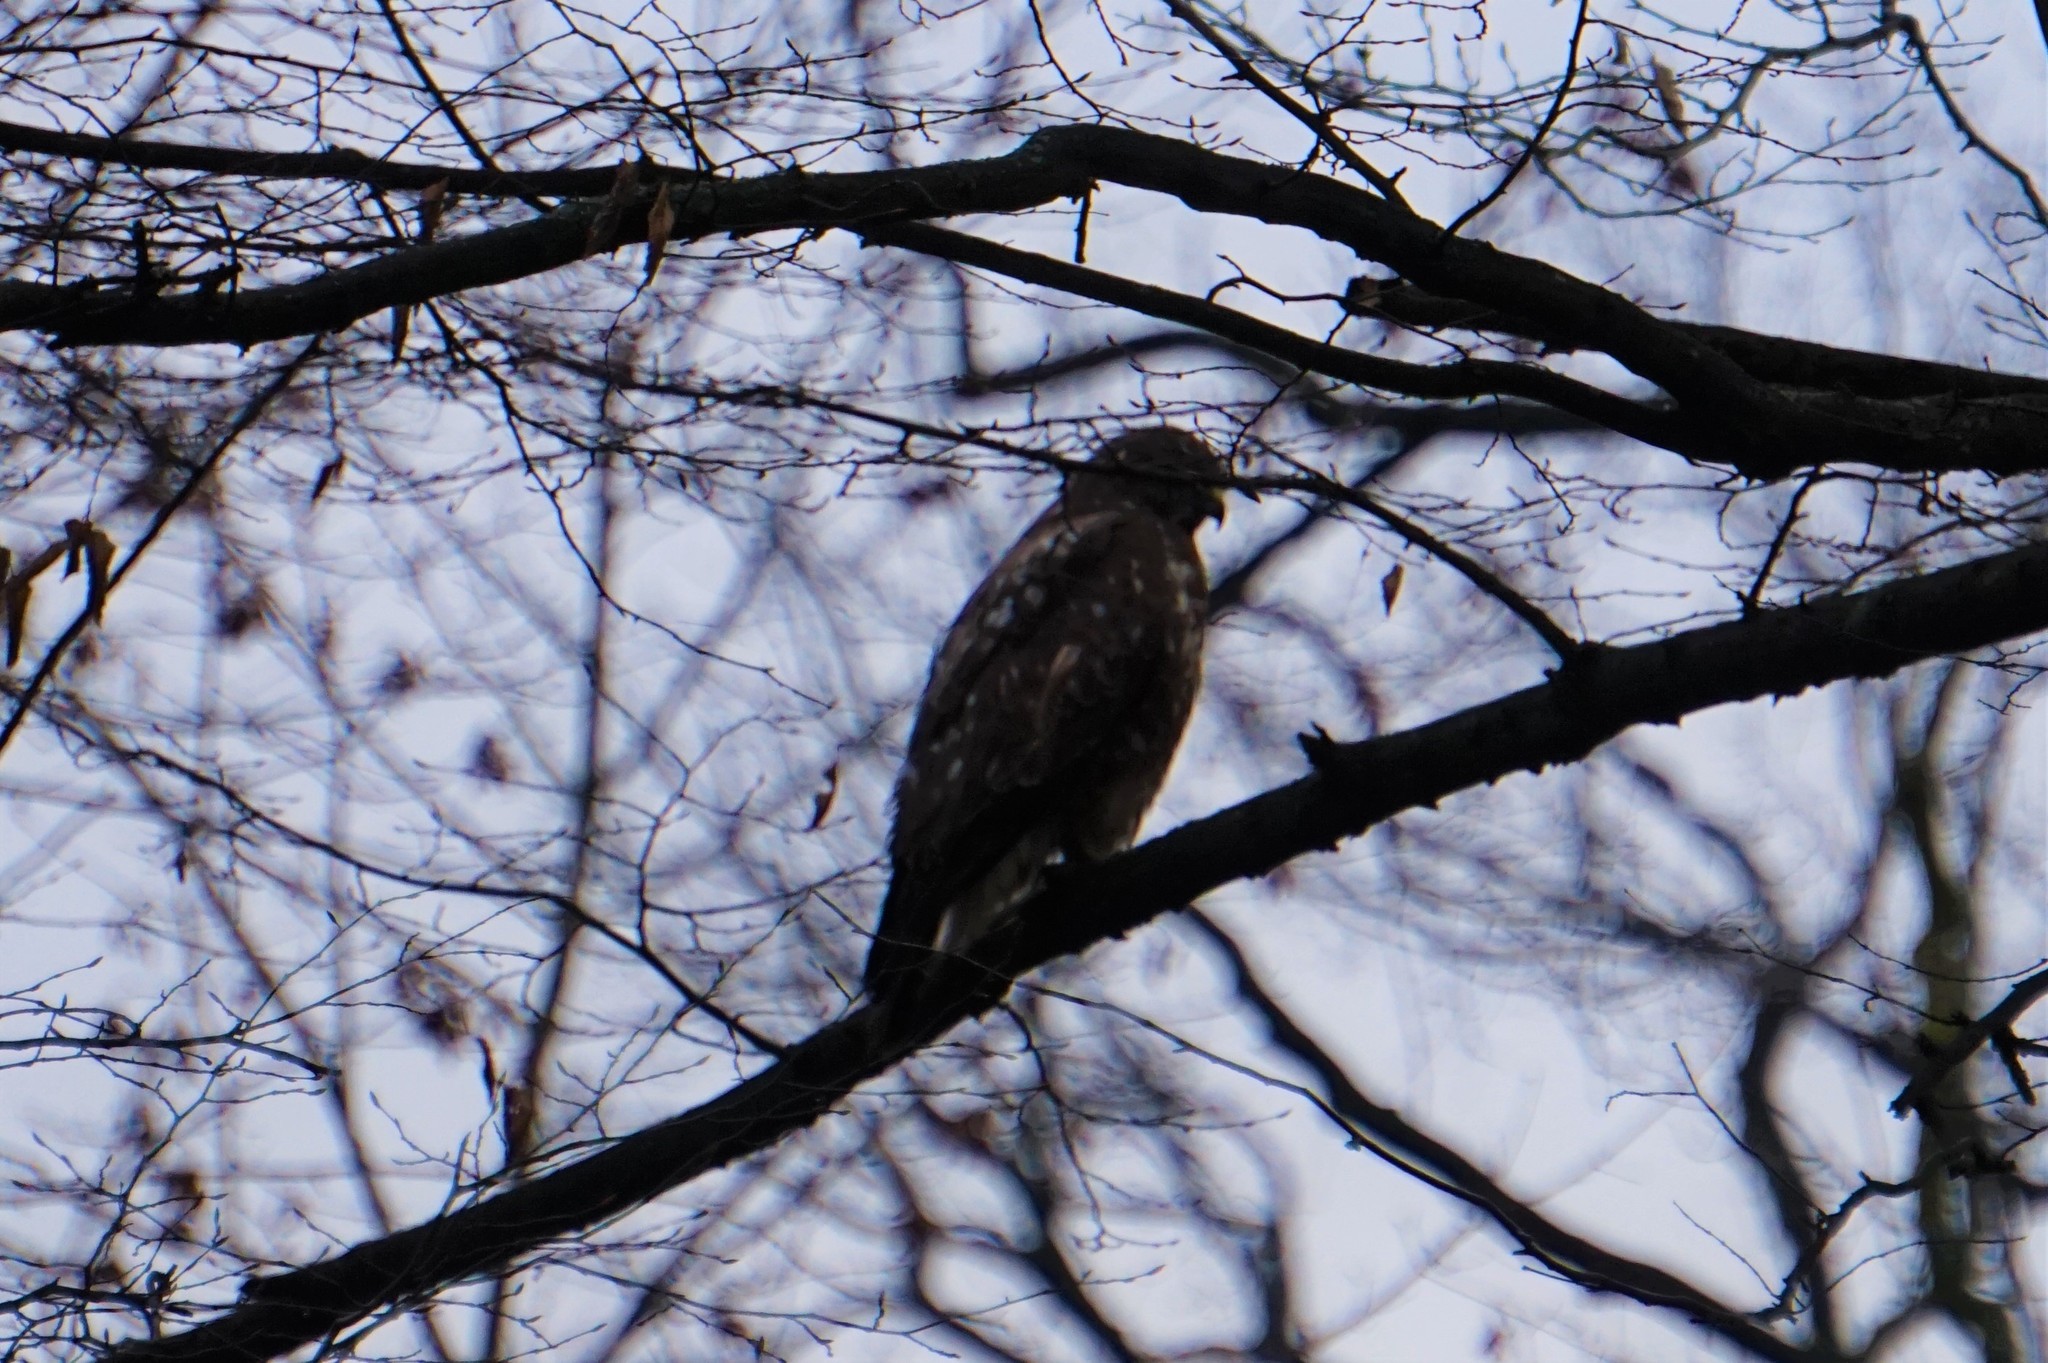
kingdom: Animalia
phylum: Chordata
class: Aves
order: Accipitriformes
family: Accipitridae
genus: Buteo
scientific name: Buteo buteo
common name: Common buzzard
